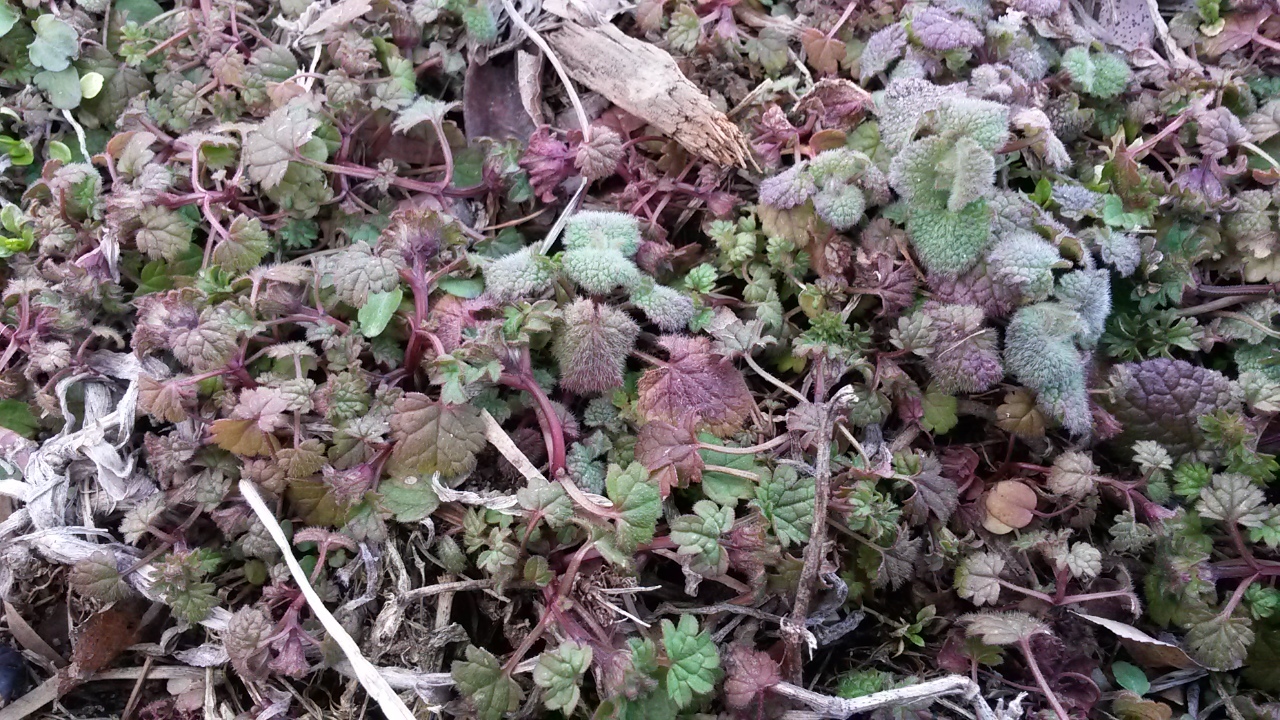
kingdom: Plantae
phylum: Tracheophyta
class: Magnoliopsida
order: Lamiales
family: Lamiaceae
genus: Lamium
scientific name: Lamium purpureum
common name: Red dead-nettle
